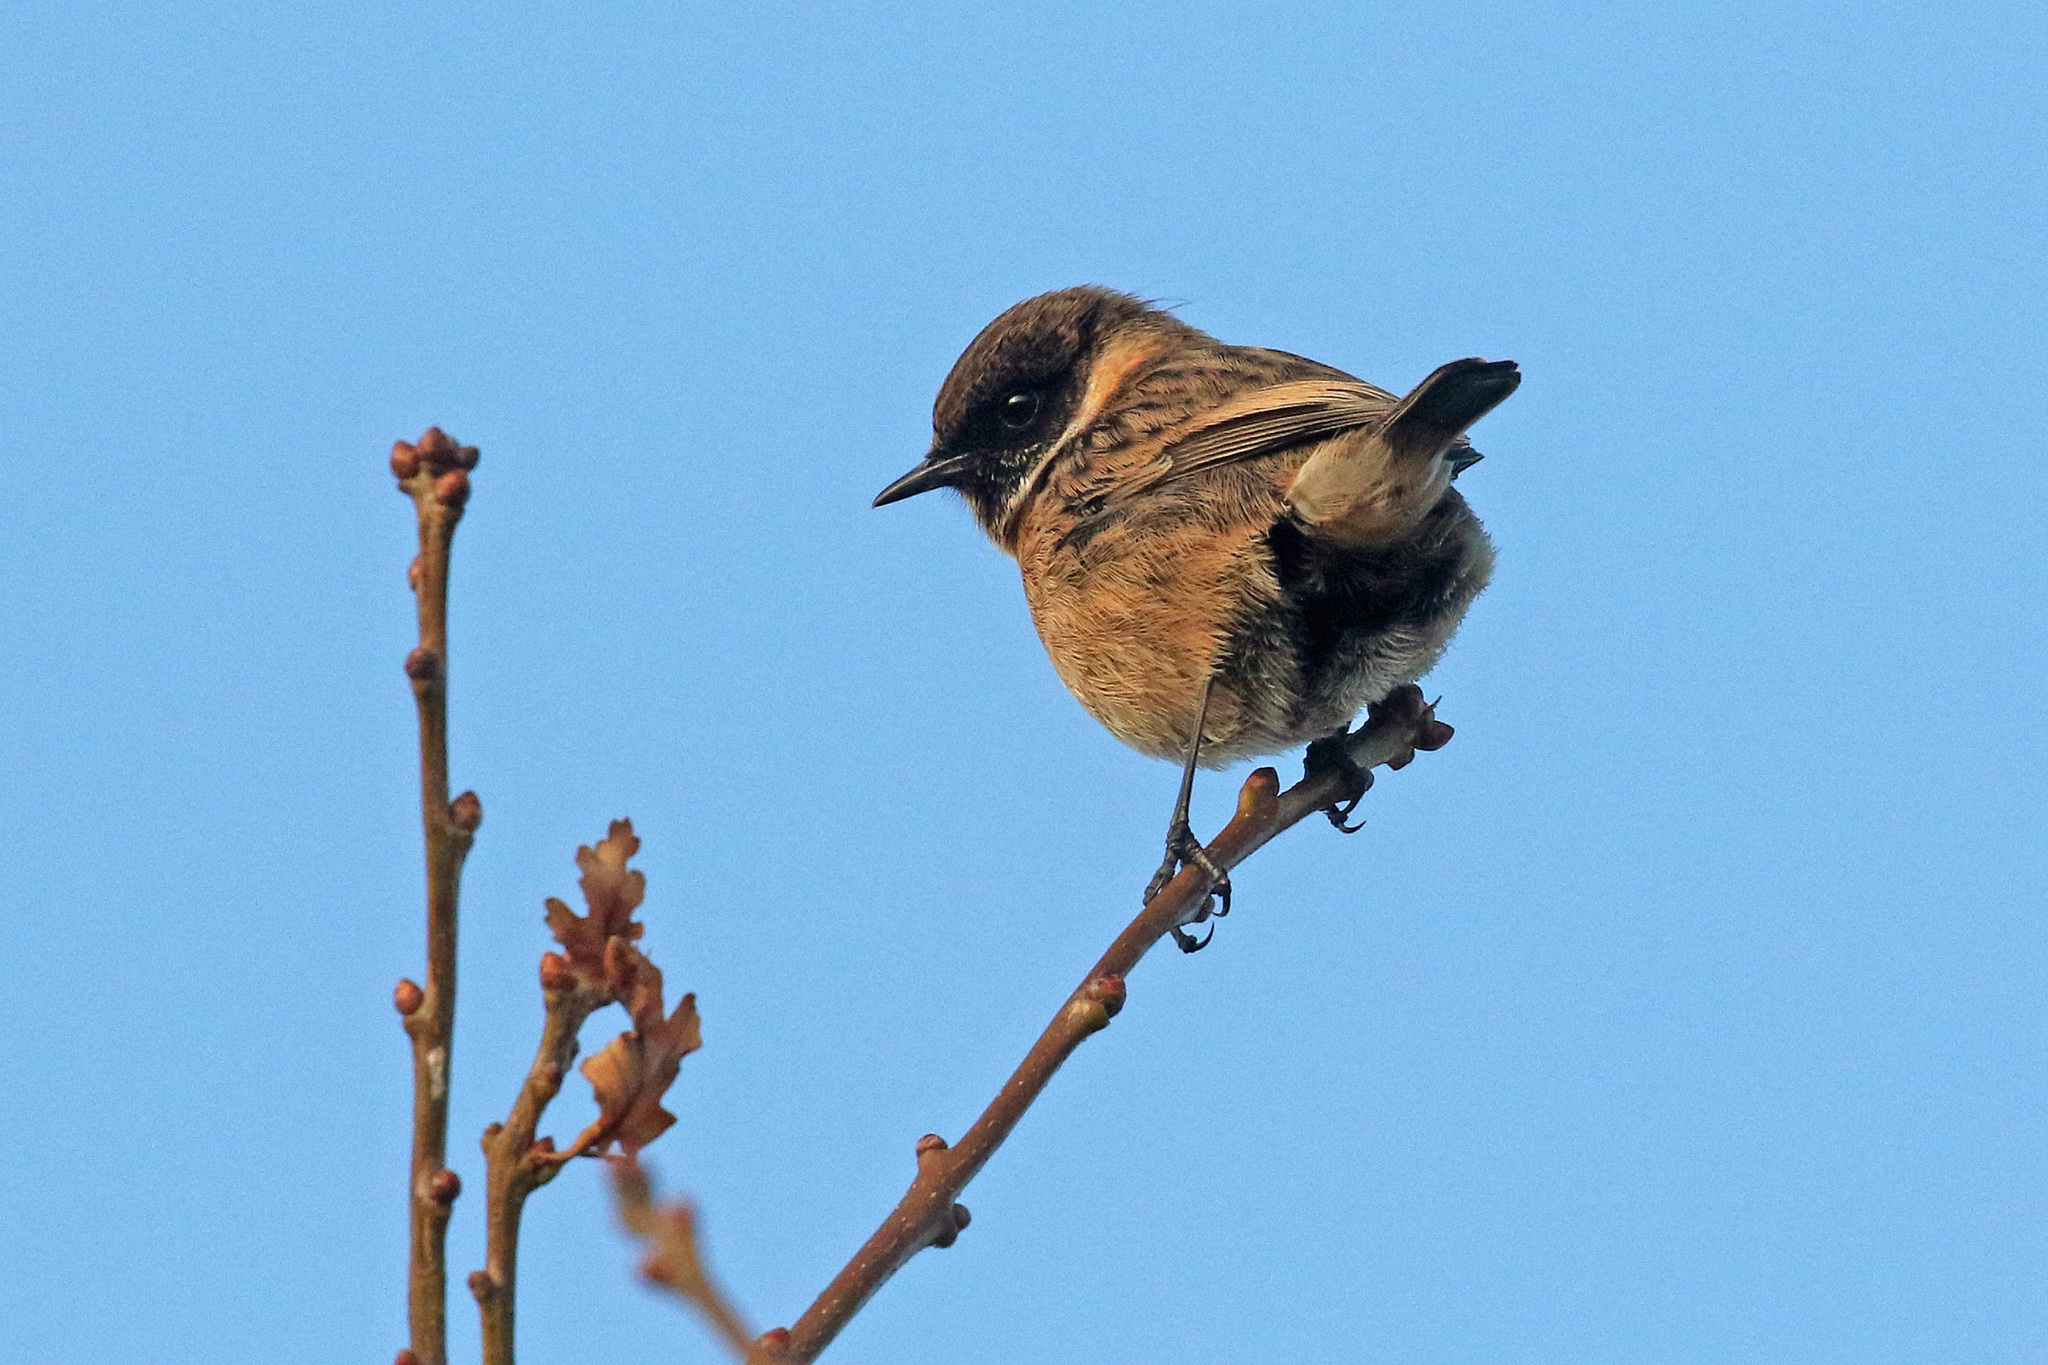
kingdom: Animalia
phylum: Chordata
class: Aves
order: Passeriformes
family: Muscicapidae
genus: Saxicola
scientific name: Saxicola rubicola
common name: European stonechat
